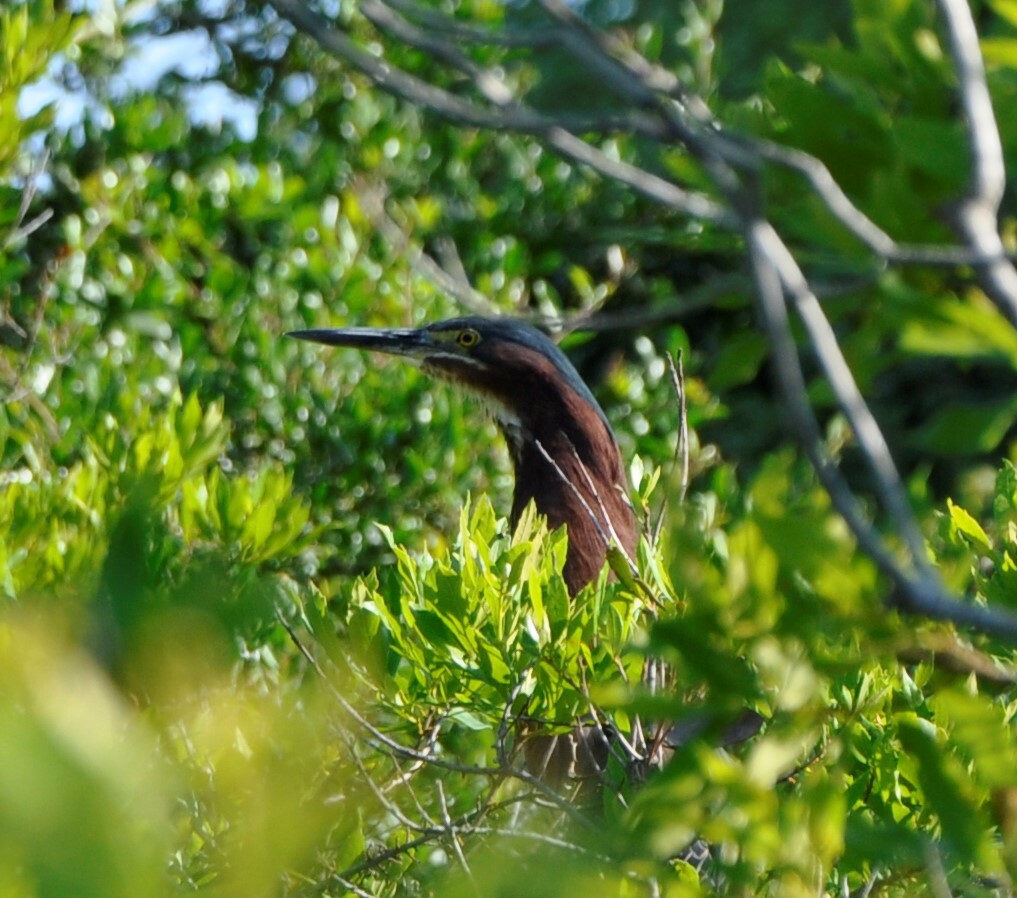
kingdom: Animalia
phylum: Chordata
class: Aves
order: Pelecaniformes
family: Ardeidae
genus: Butorides
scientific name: Butorides virescens
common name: Green heron
